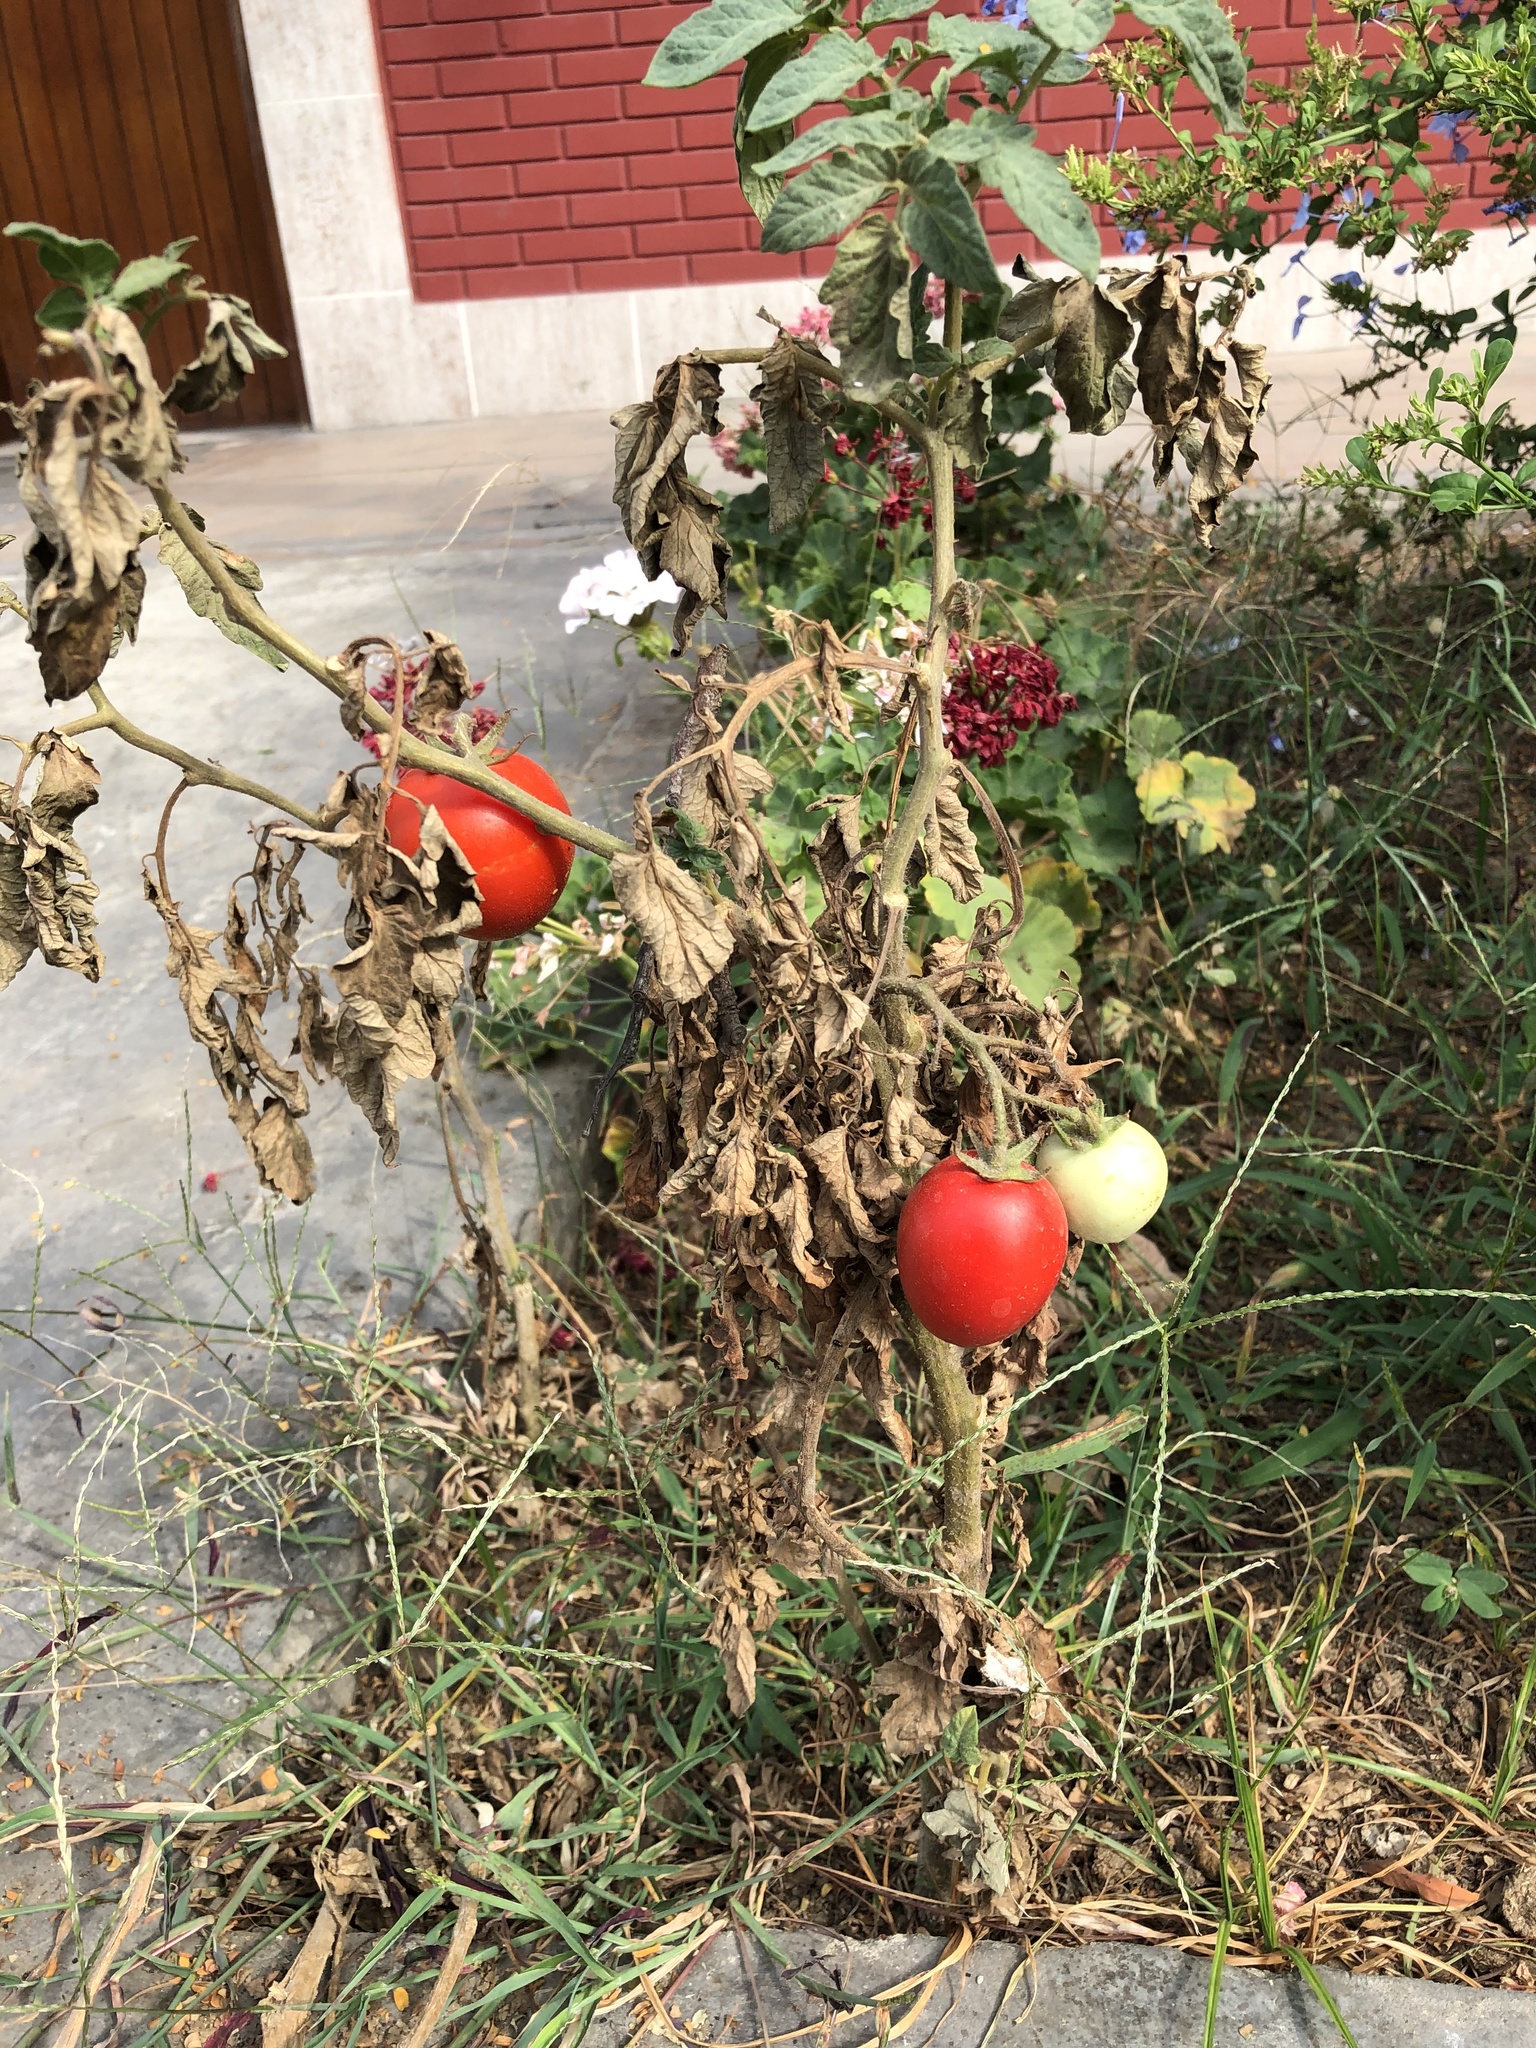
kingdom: Plantae
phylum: Tracheophyta
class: Magnoliopsida
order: Solanales
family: Solanaceae
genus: Solanum
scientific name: Solanum lycopersicum
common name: Garden tomato
